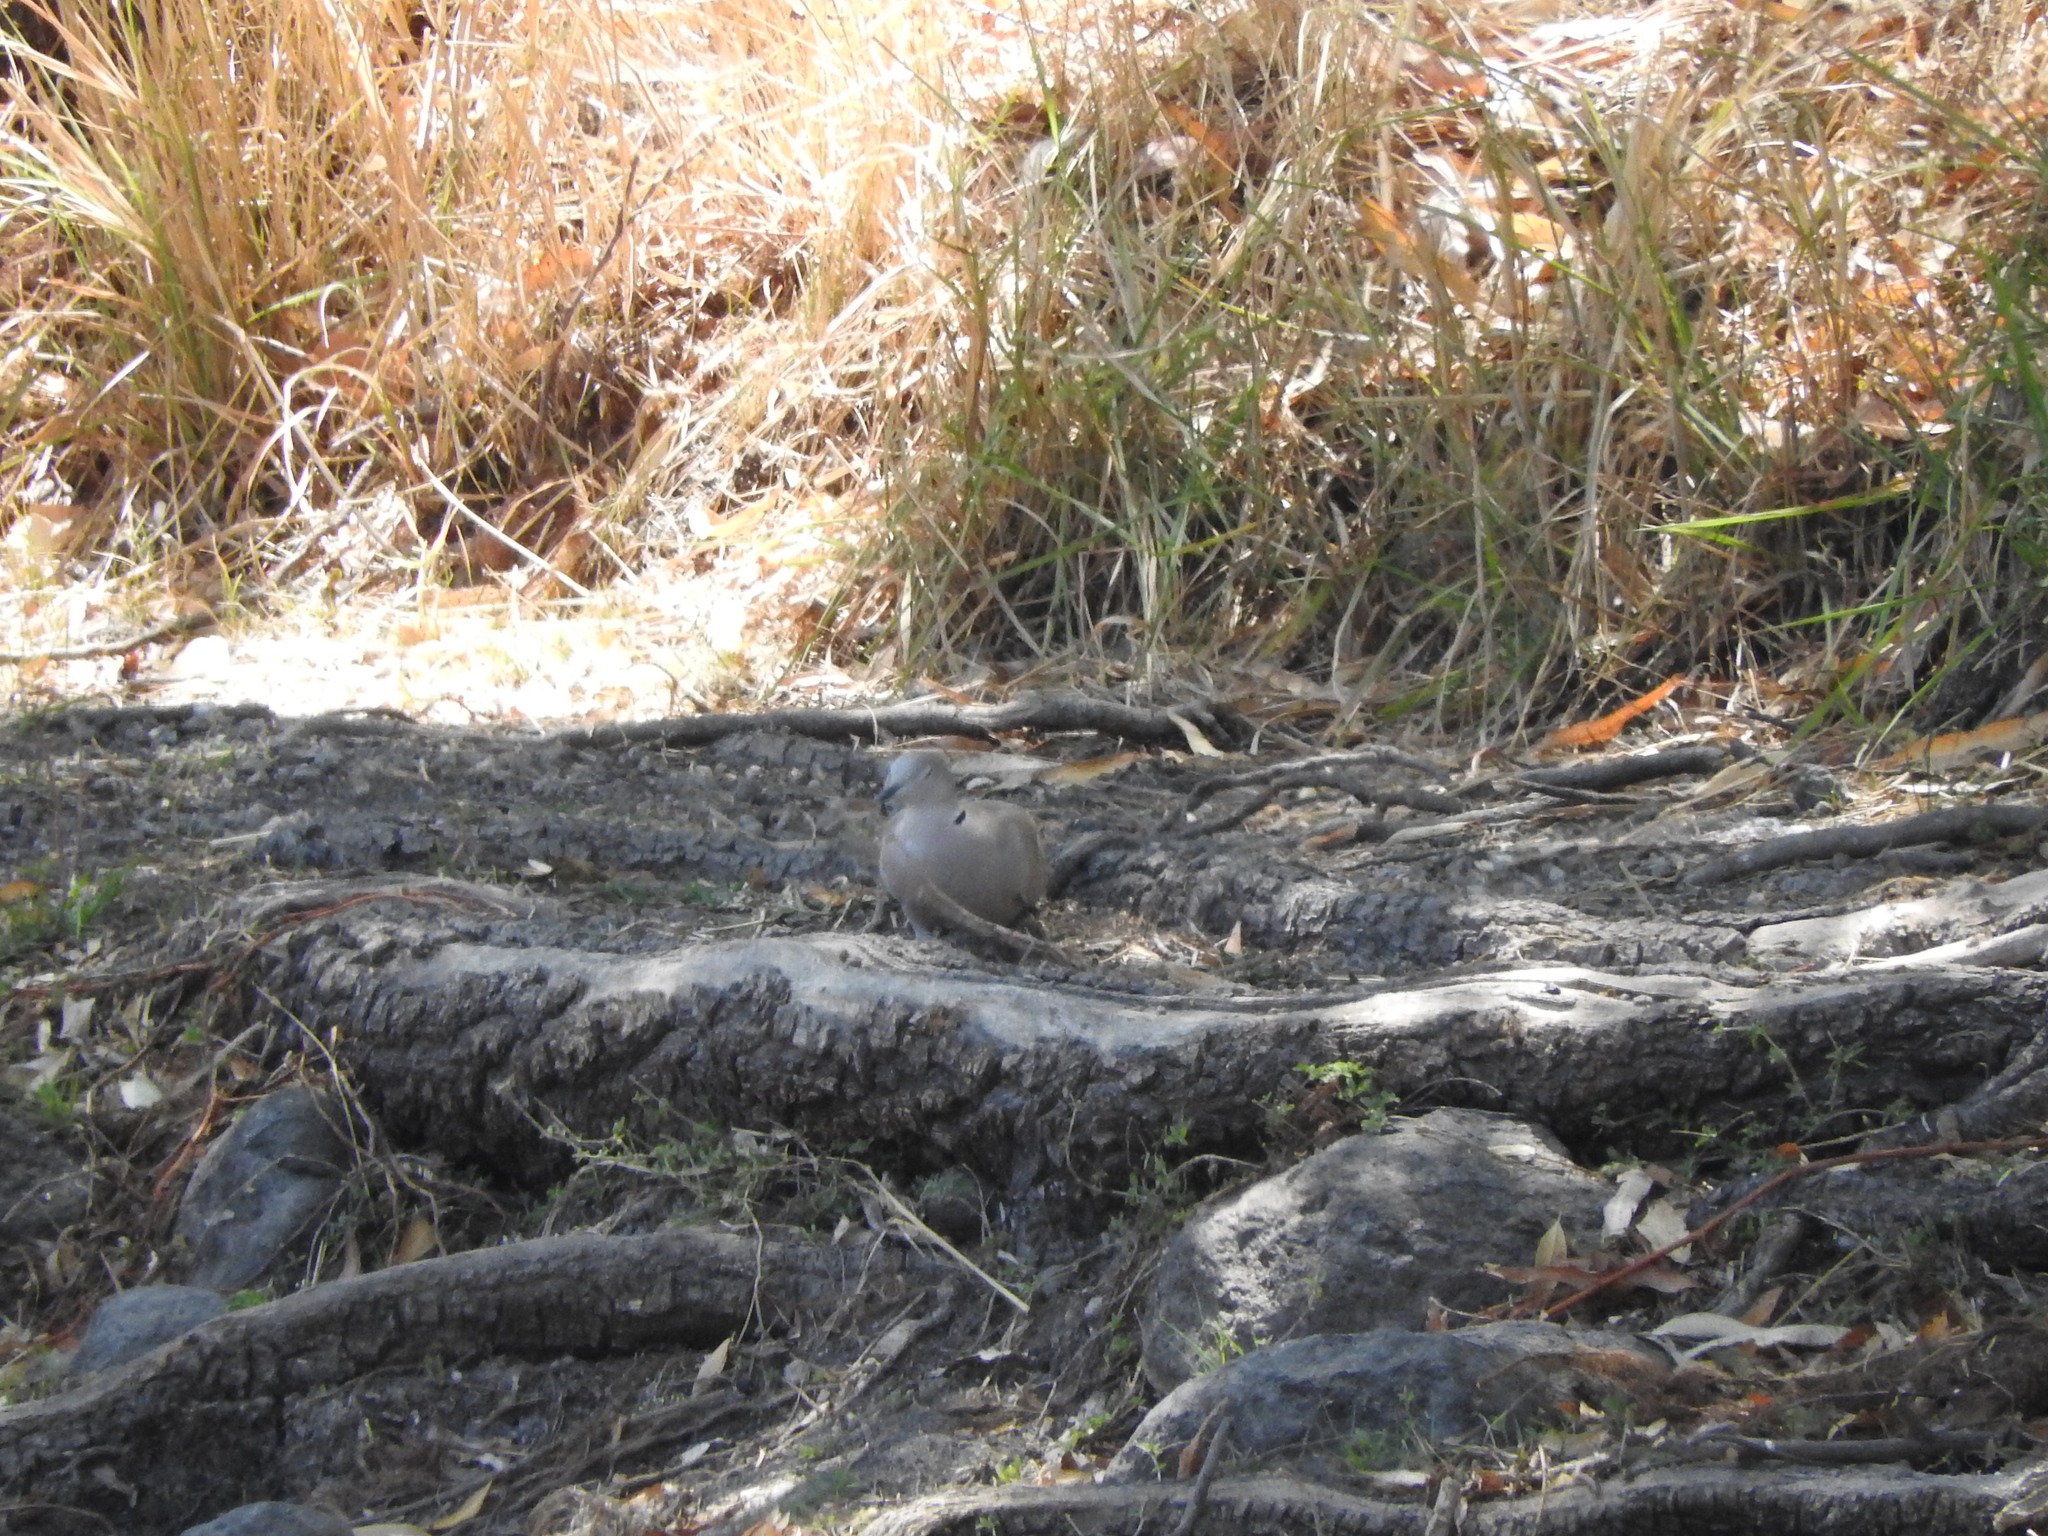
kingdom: Animalia
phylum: Chordata
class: Aves
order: Columbiformes
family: Columbidae
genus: Streptopelia
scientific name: Streptopelia decaocto
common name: Eurasian collared dove
